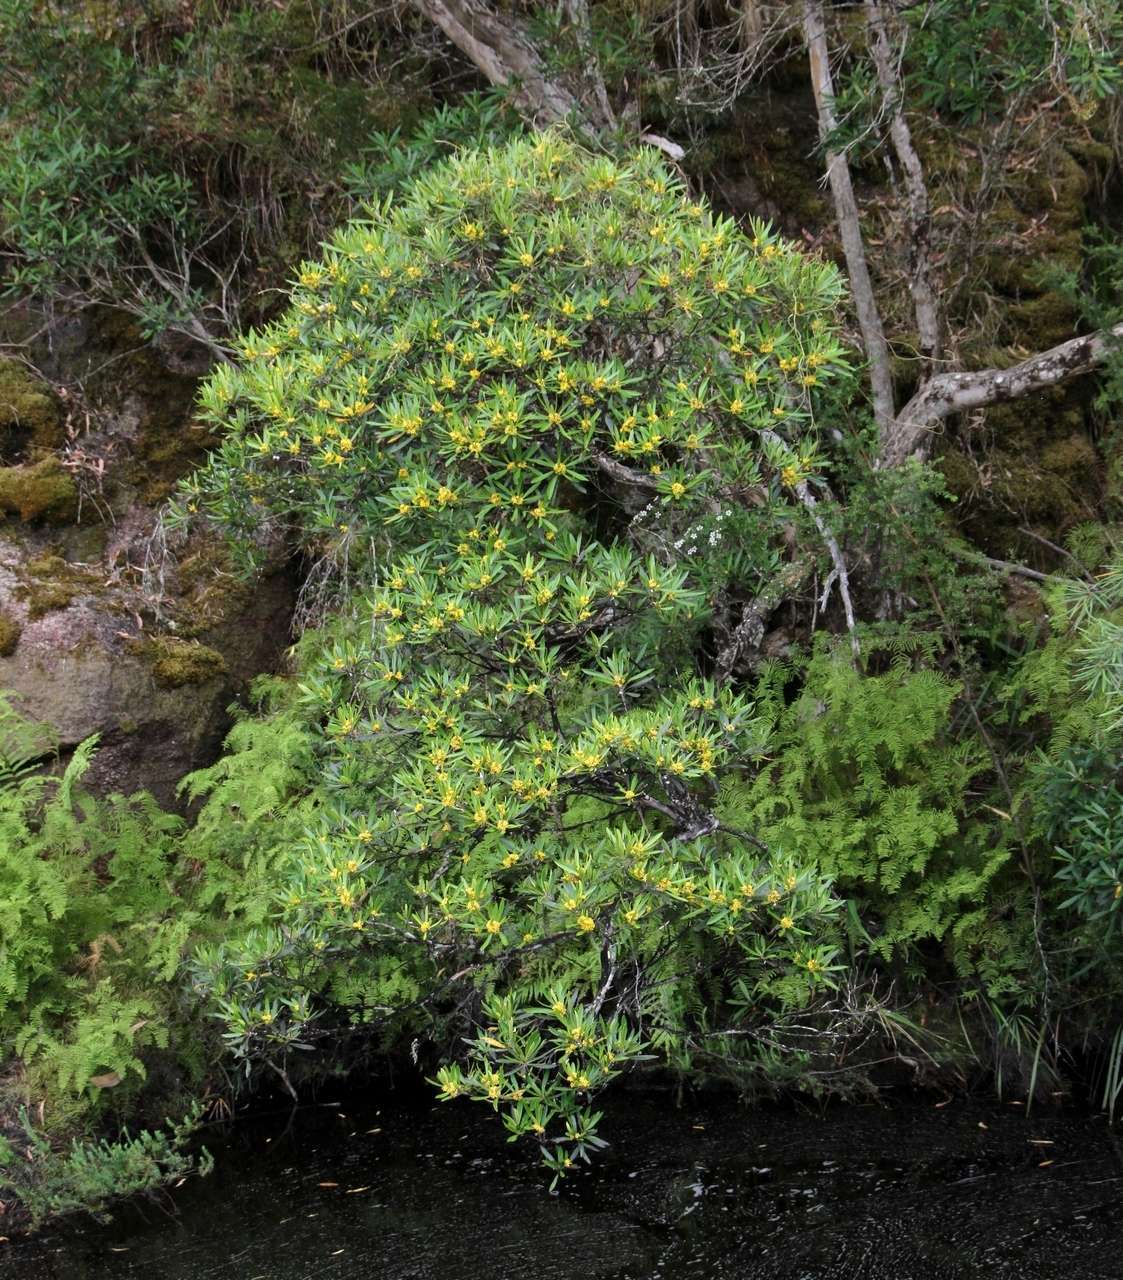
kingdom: Plantae
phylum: Tracheophyta
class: Magnoliopsida
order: Myrtales
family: Myrtaceae
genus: Tristaniopsis
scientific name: Tristaniopsis laurina
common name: Water-gum
